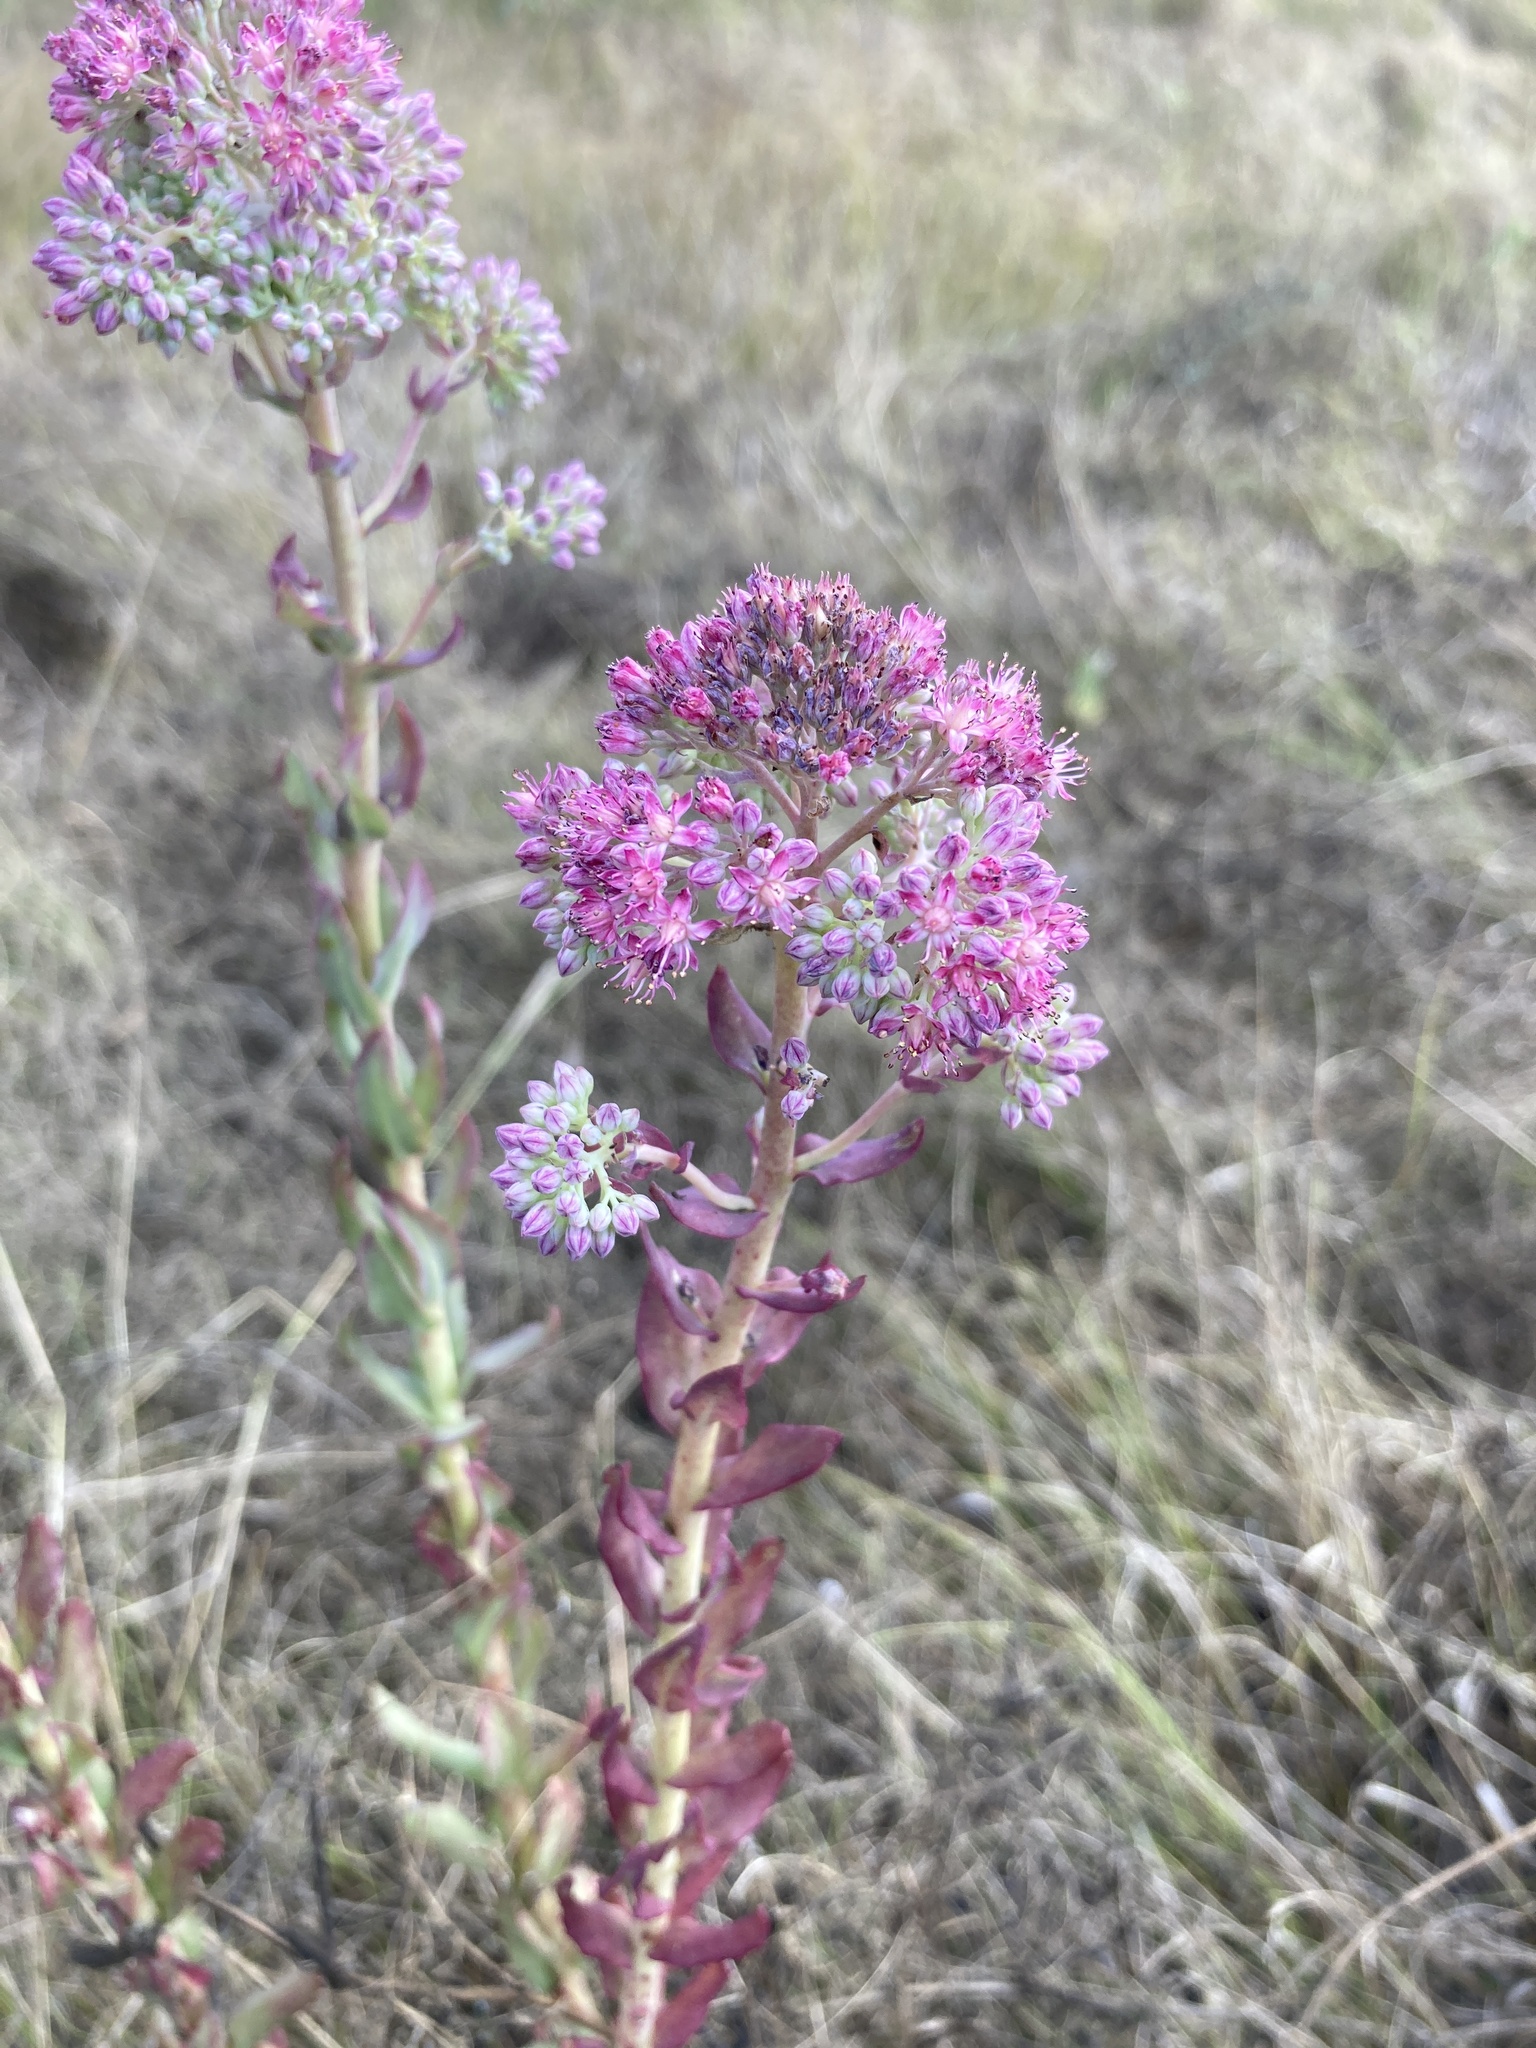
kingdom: Plantae
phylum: Tracheophyta
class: Magnoliopsida
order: Saxifragales
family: Crassulaceae
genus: Hylotelephium
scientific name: Hylotelephium telephium
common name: Live-forever
